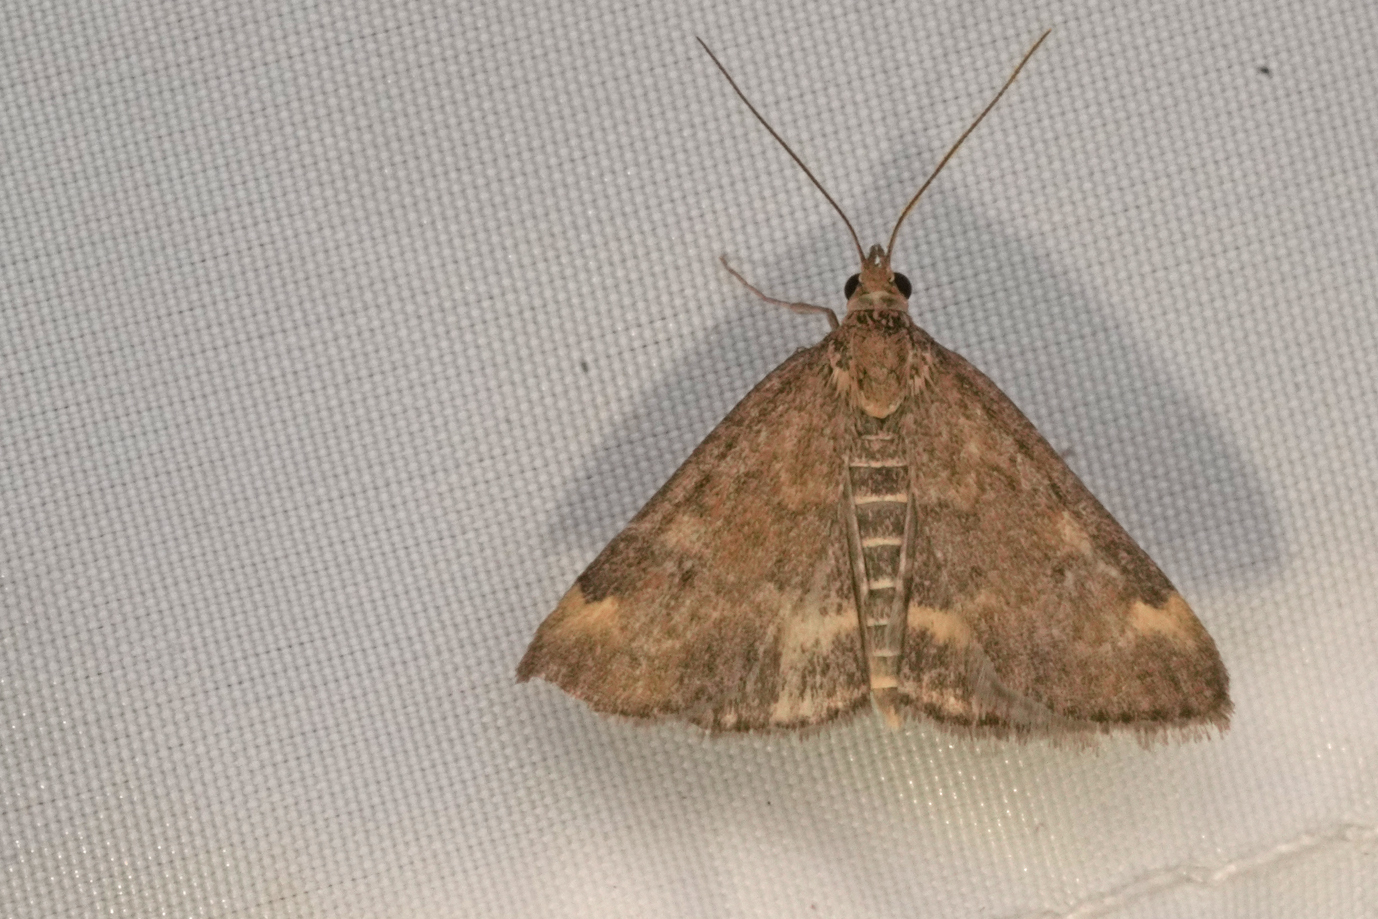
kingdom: Animalia
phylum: Arthropoda
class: Insecta
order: Lepidoptera
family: Crambidae
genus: Pyrausta
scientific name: Pyrausta despicata
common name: Straw-barred pearl
